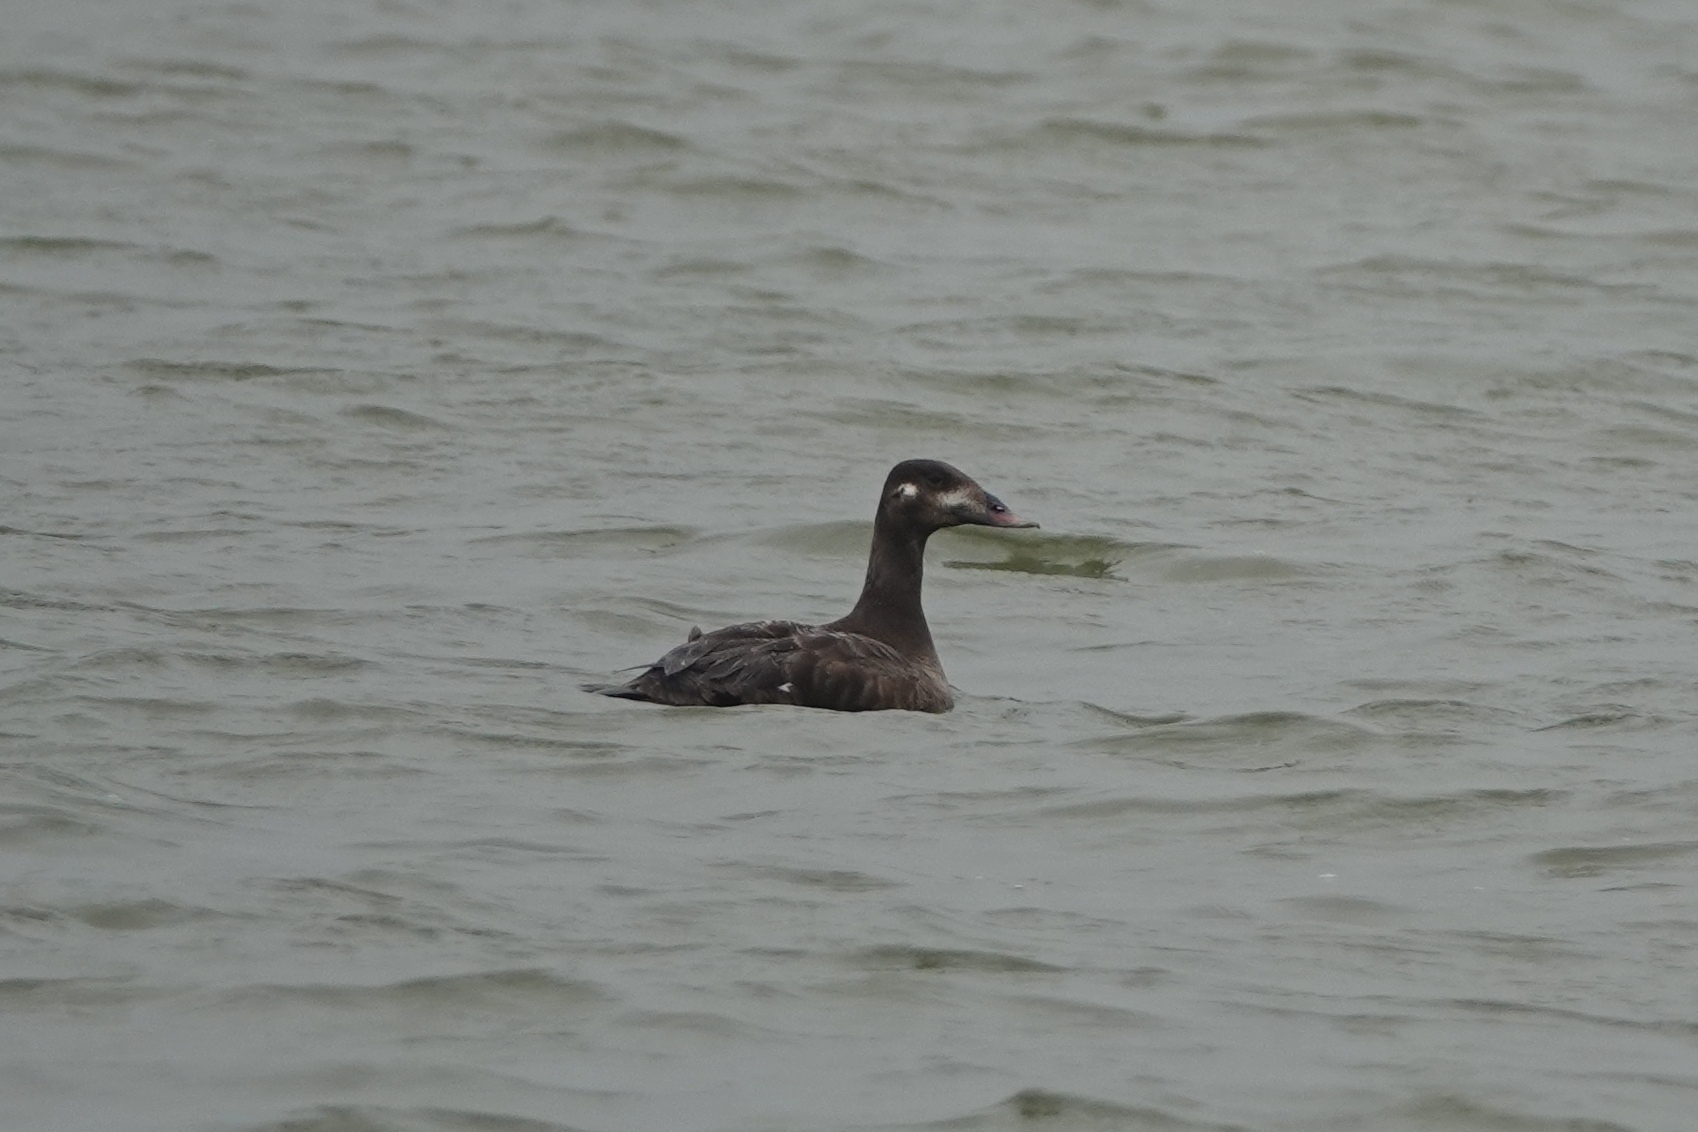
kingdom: Animalia
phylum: Chordata
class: Aves
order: Anseriformes
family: Anatidae
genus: Melanitta
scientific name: Melanitta stejnegeri
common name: Stejneger's scoter
